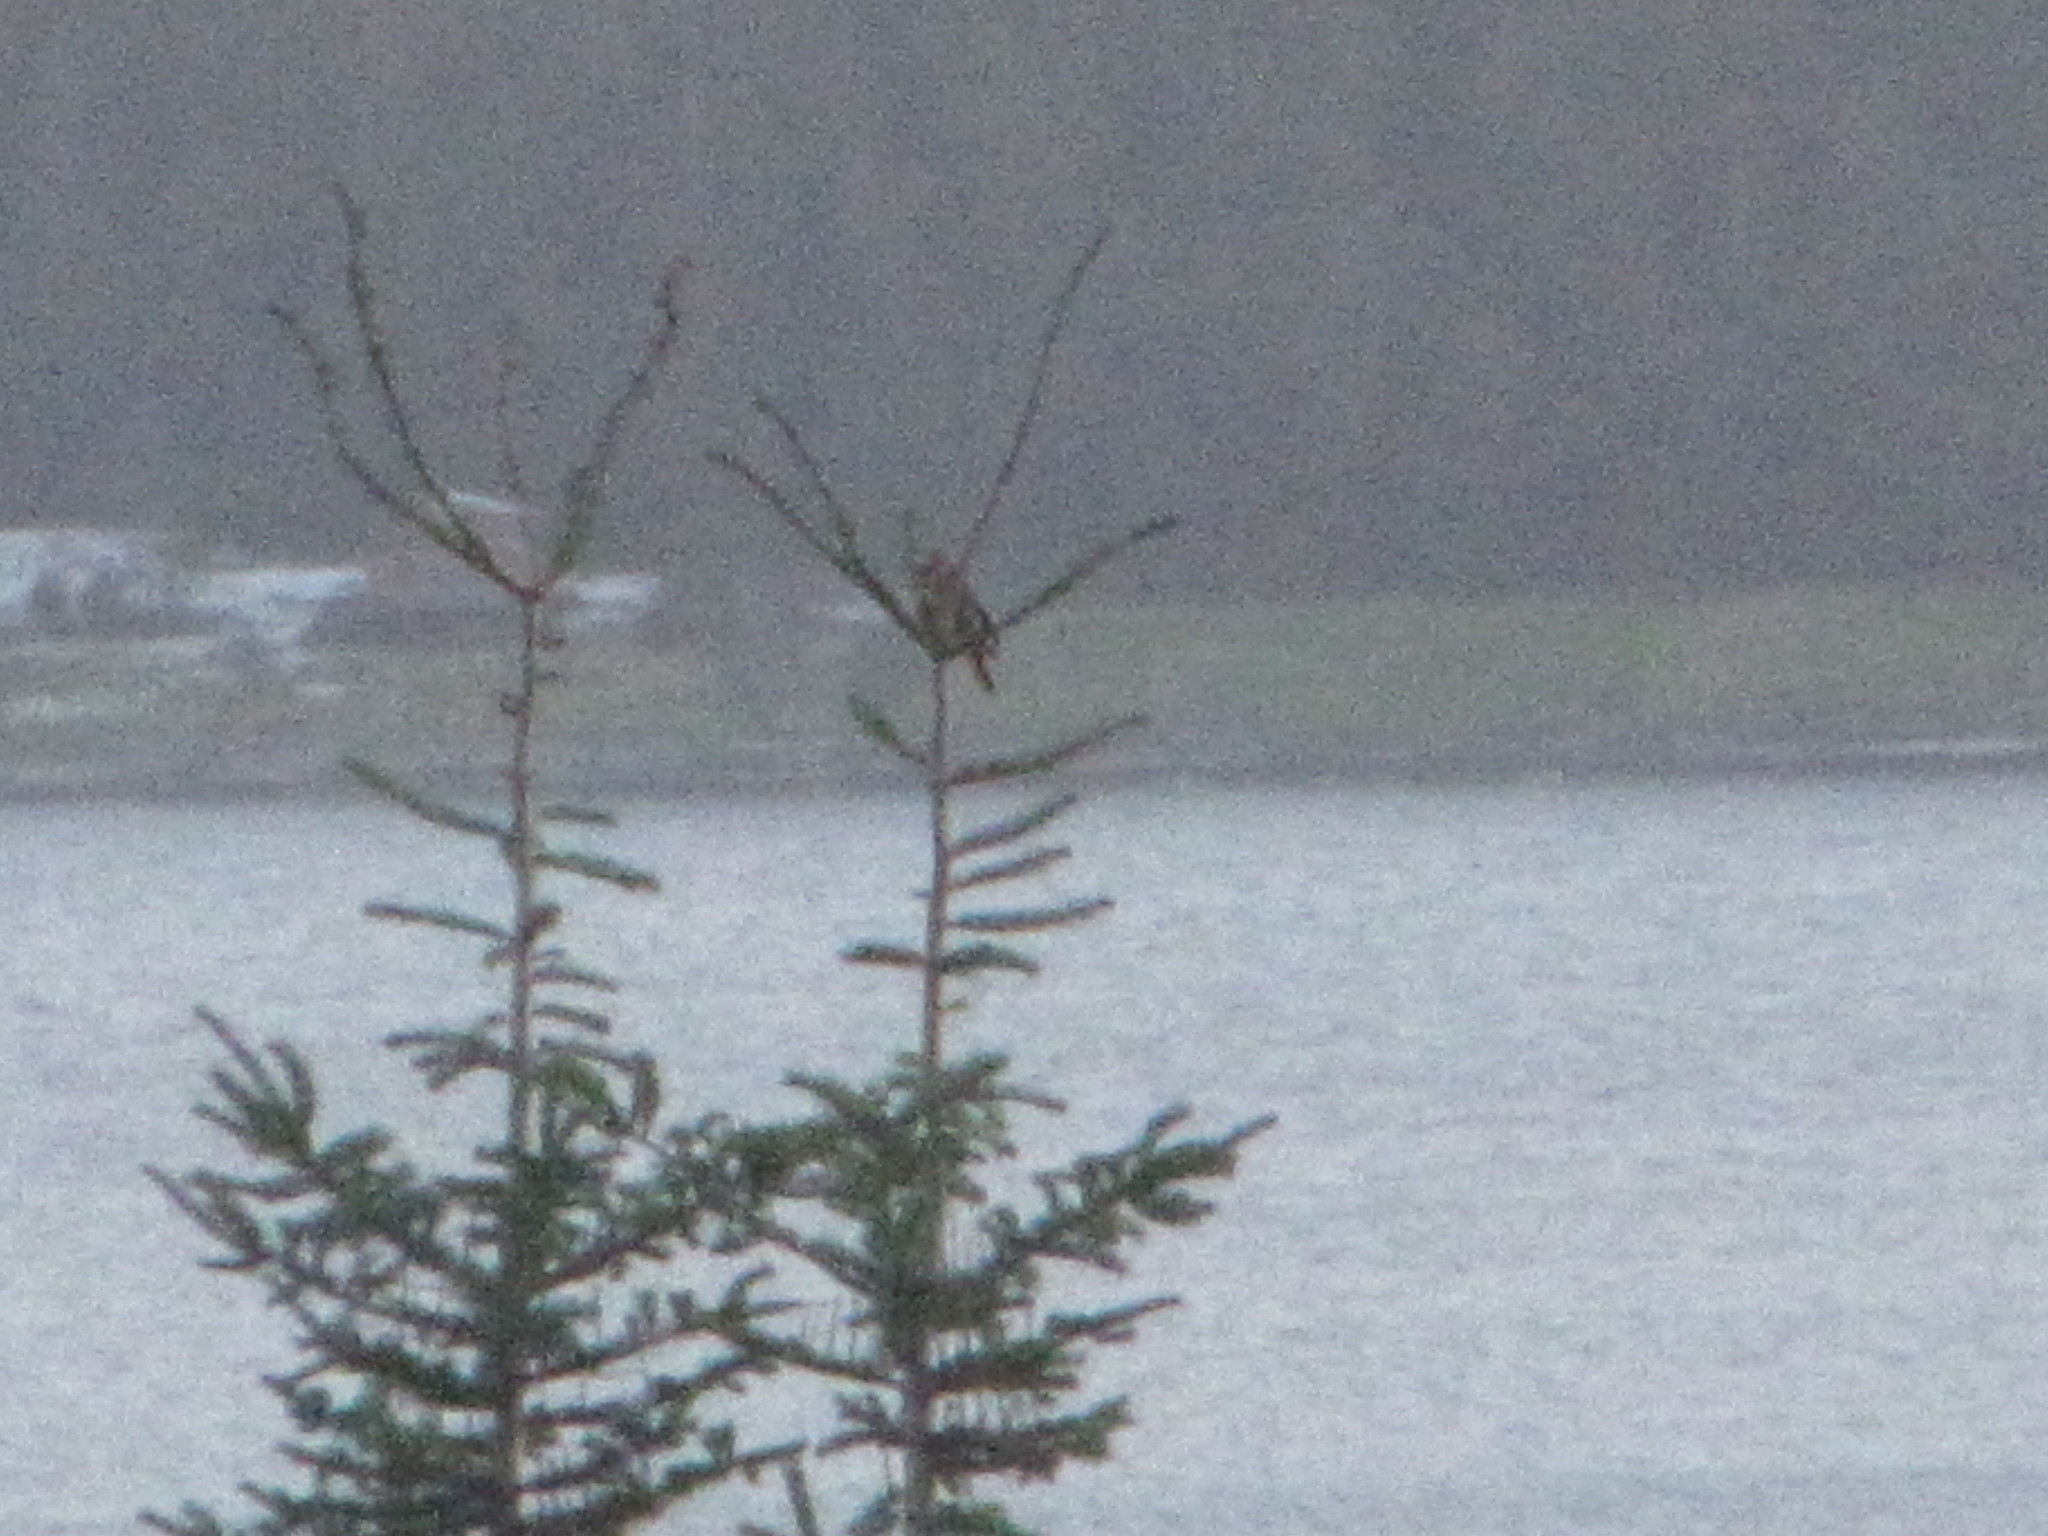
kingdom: Animalia
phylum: Chordata
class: Aves
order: Piciformes
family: Picidae
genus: Colaptes
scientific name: Colaptes auratus
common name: Northern flicker
